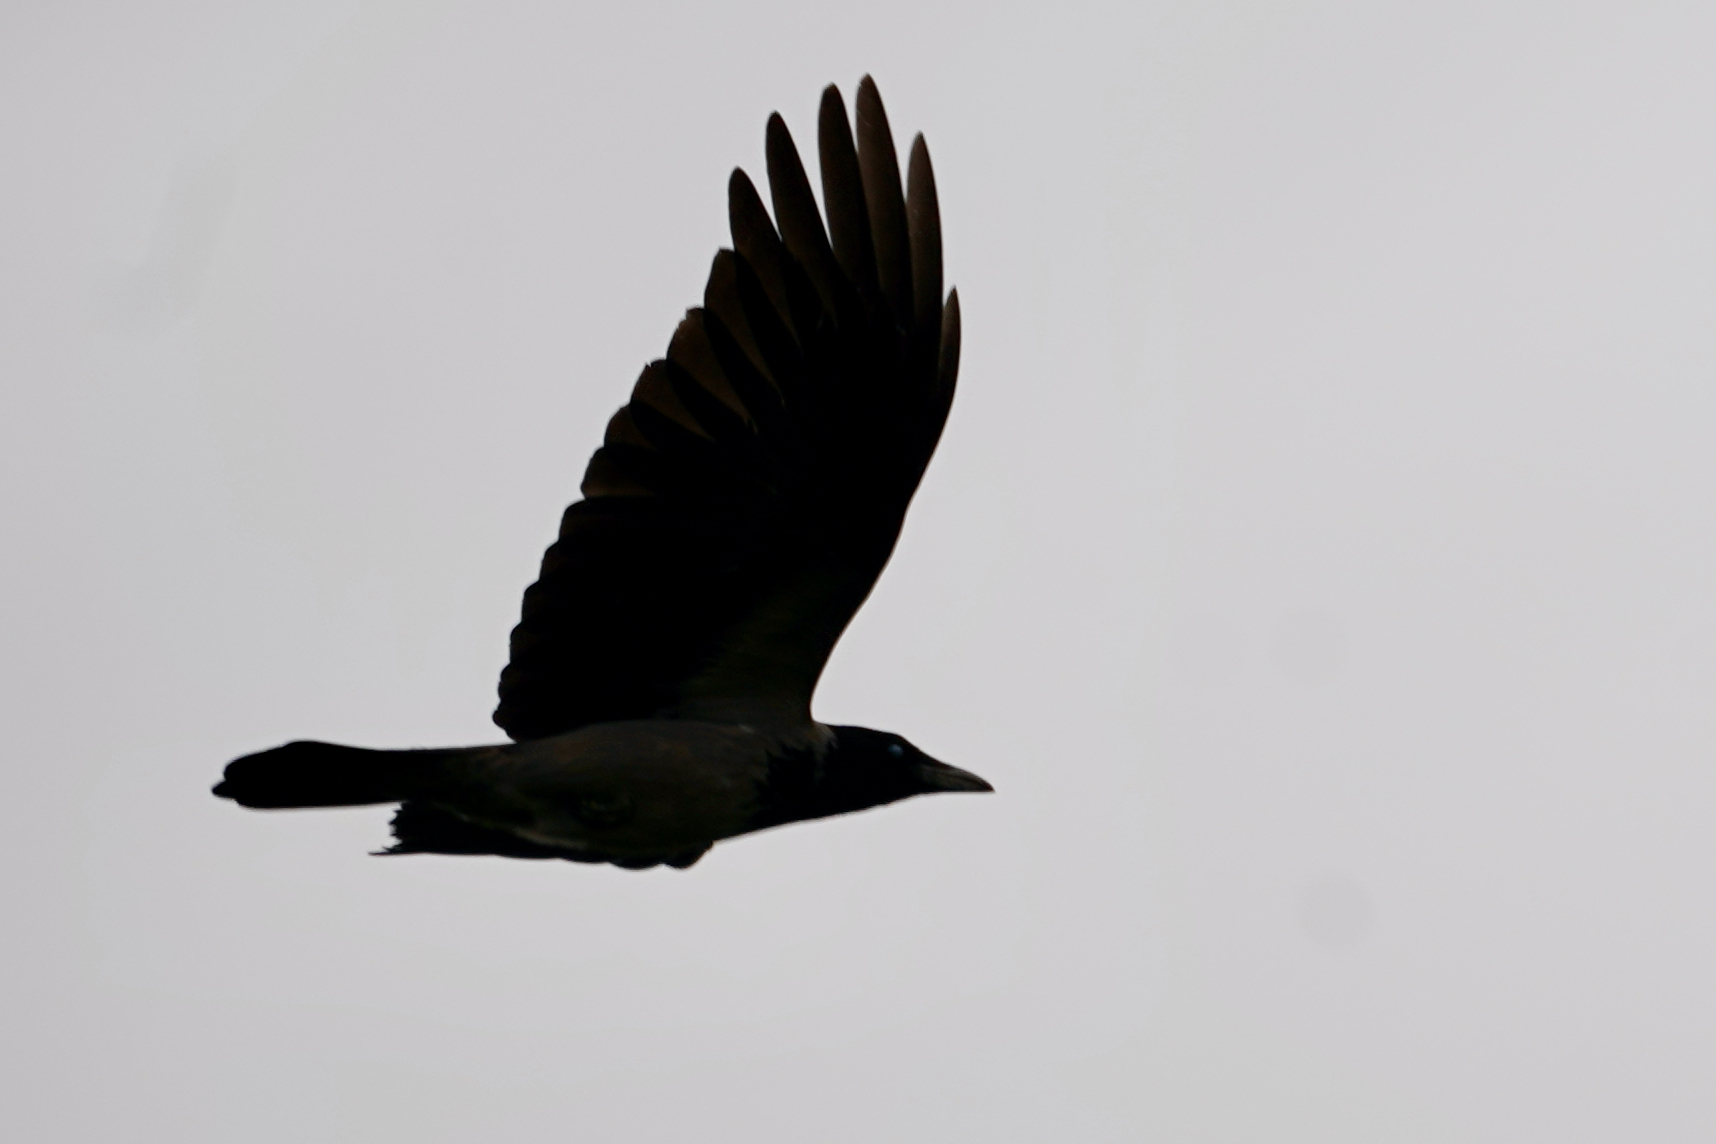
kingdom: Animalia
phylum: Chordata
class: Aves
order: Passeriformes
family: Corvidae
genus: Corvus
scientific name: Corvus cornix
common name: Hooded crow
